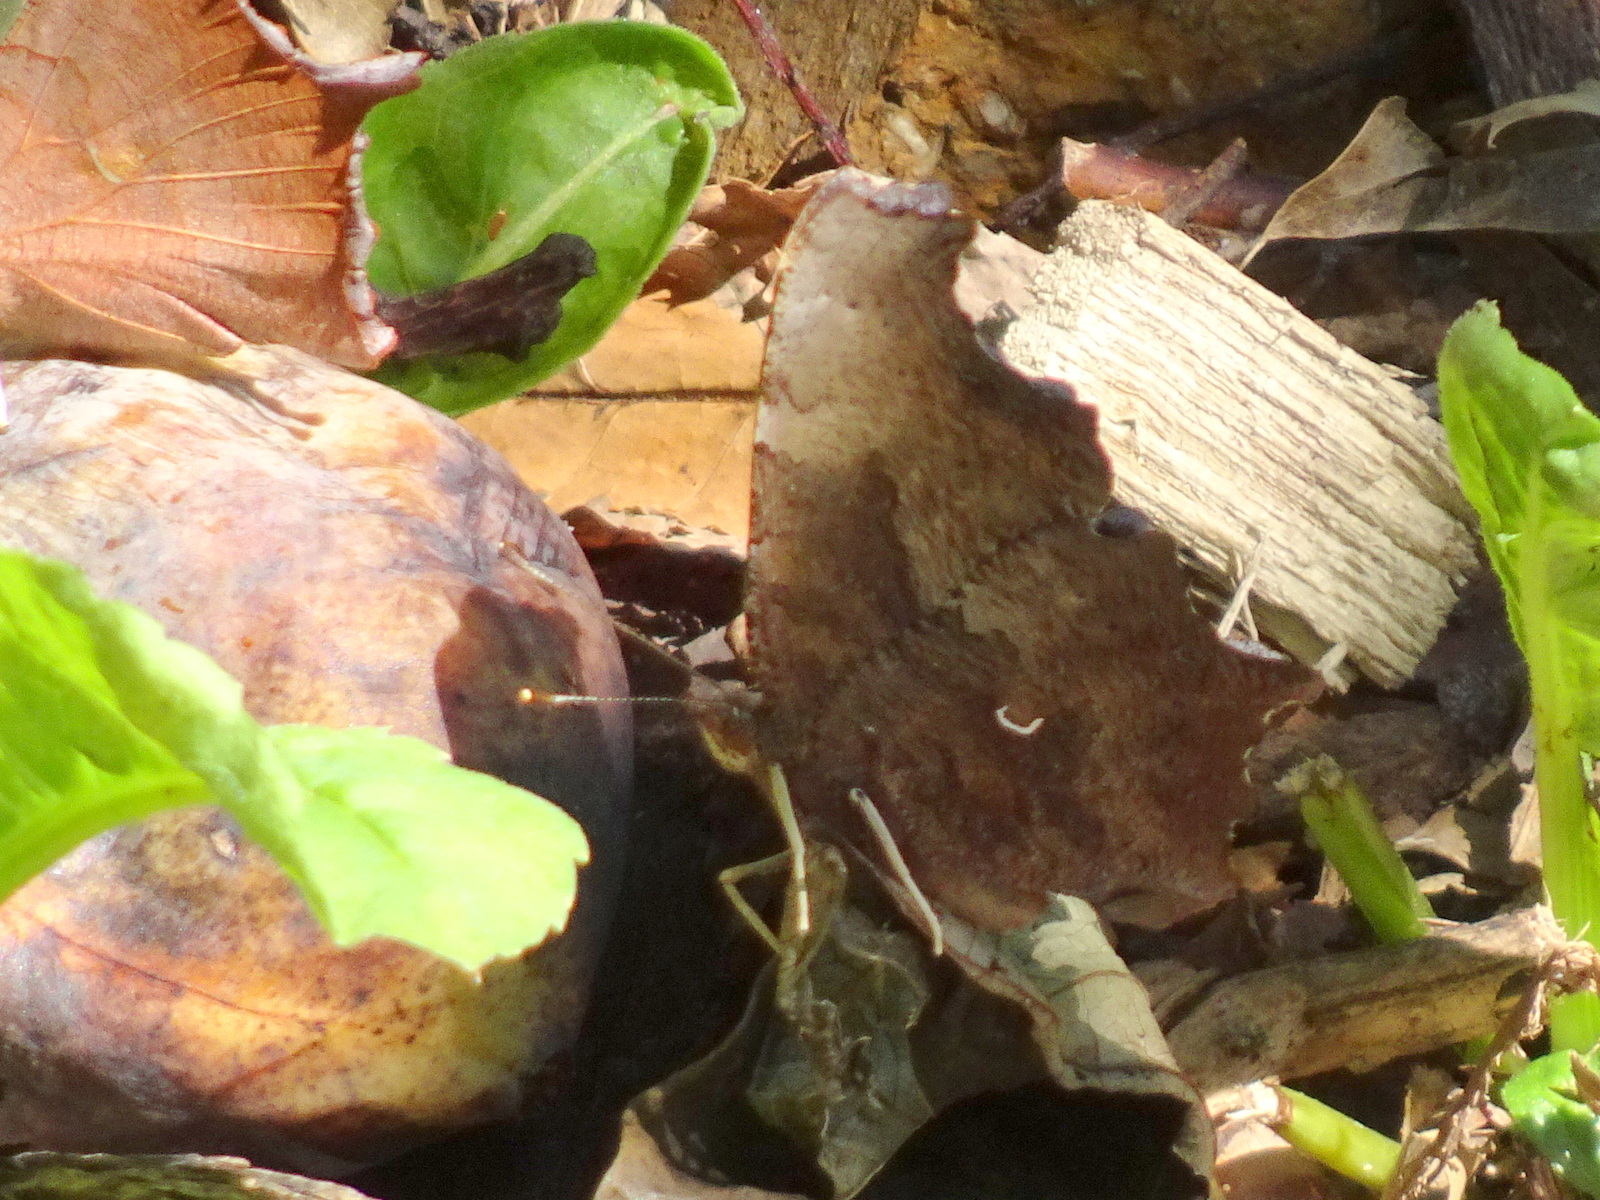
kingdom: Animalia
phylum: Arthropoda
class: Insecta
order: Lepidoptera
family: Nymphalidae
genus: Polygonia
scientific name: Polygonia comma
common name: Eastern comma
